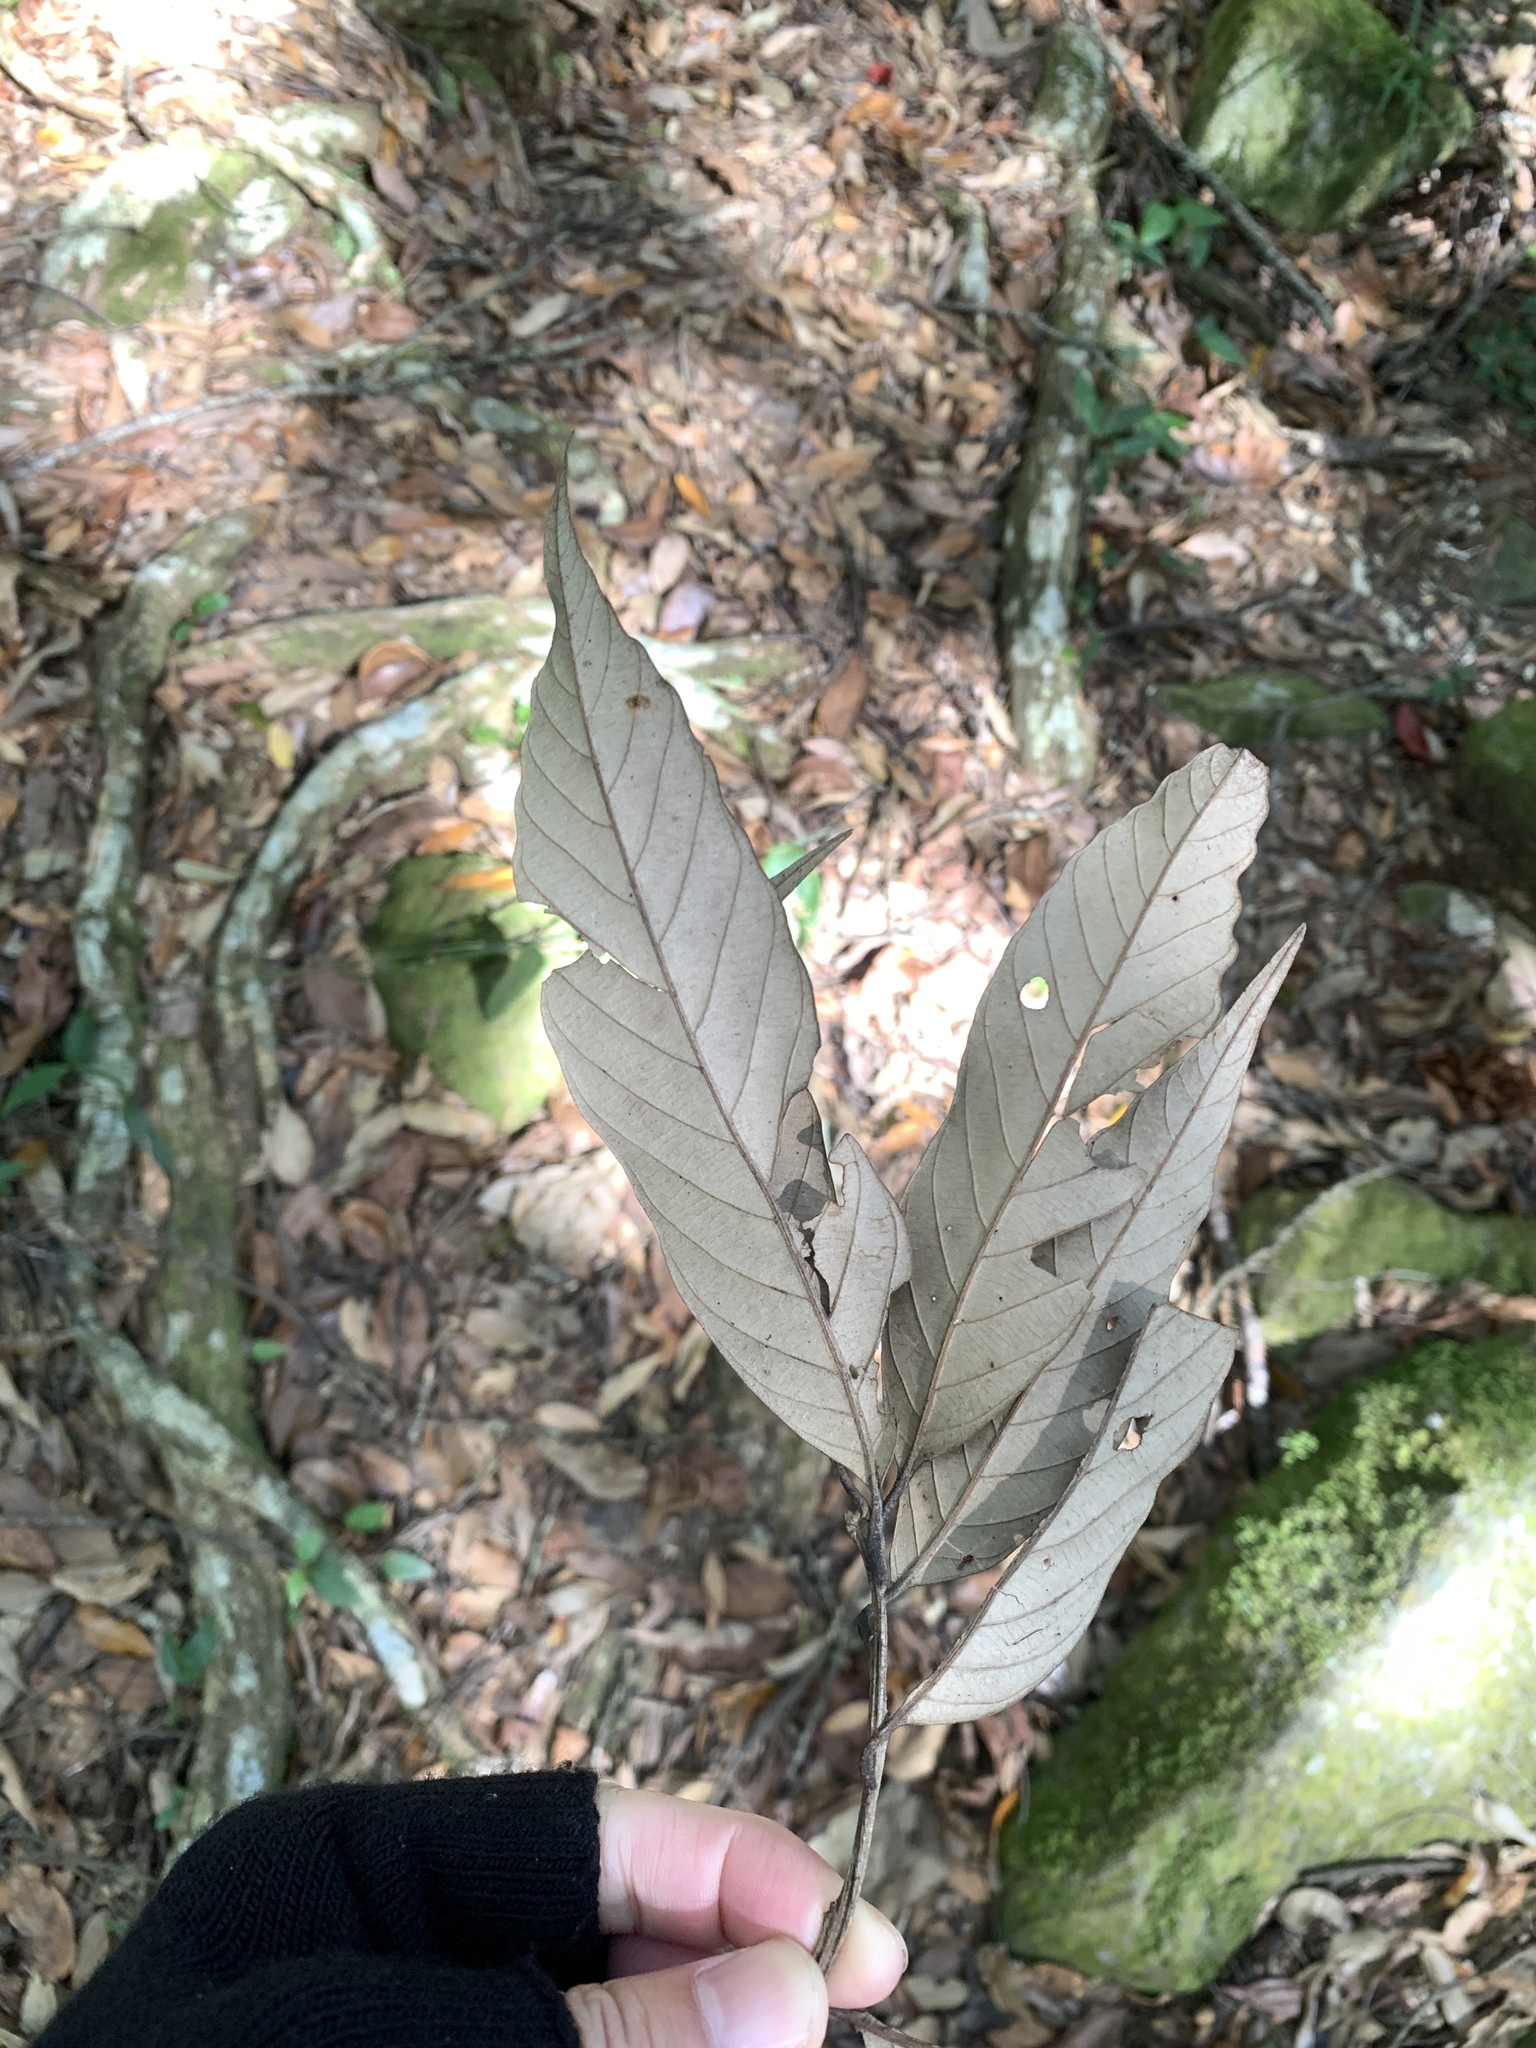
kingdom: Plantae
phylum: Tracheophyta
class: Magnoliopsida
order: Fagales
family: Fagaceae
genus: Lithocarpus
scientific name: Lithocarpus amygdalifolius
